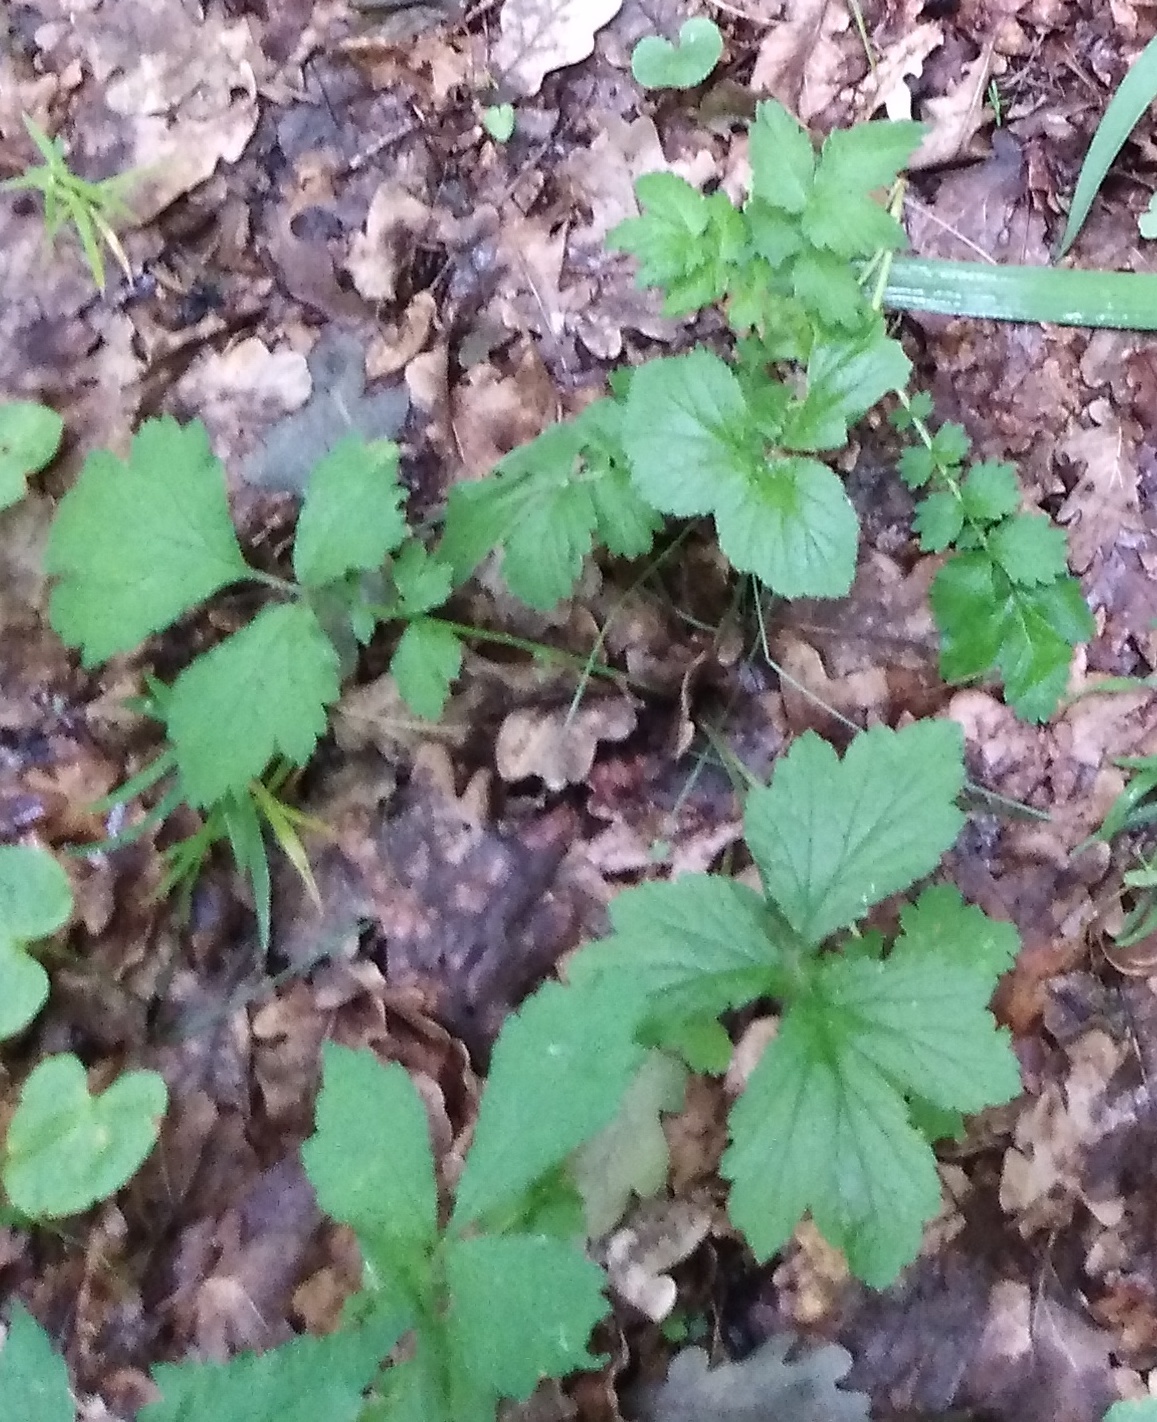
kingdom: Plantae
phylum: Tracheophyta
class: Magnoliopsida
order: Rosales
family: Rosaceae
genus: Geum
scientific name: Geum urbanum
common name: Wood avens
